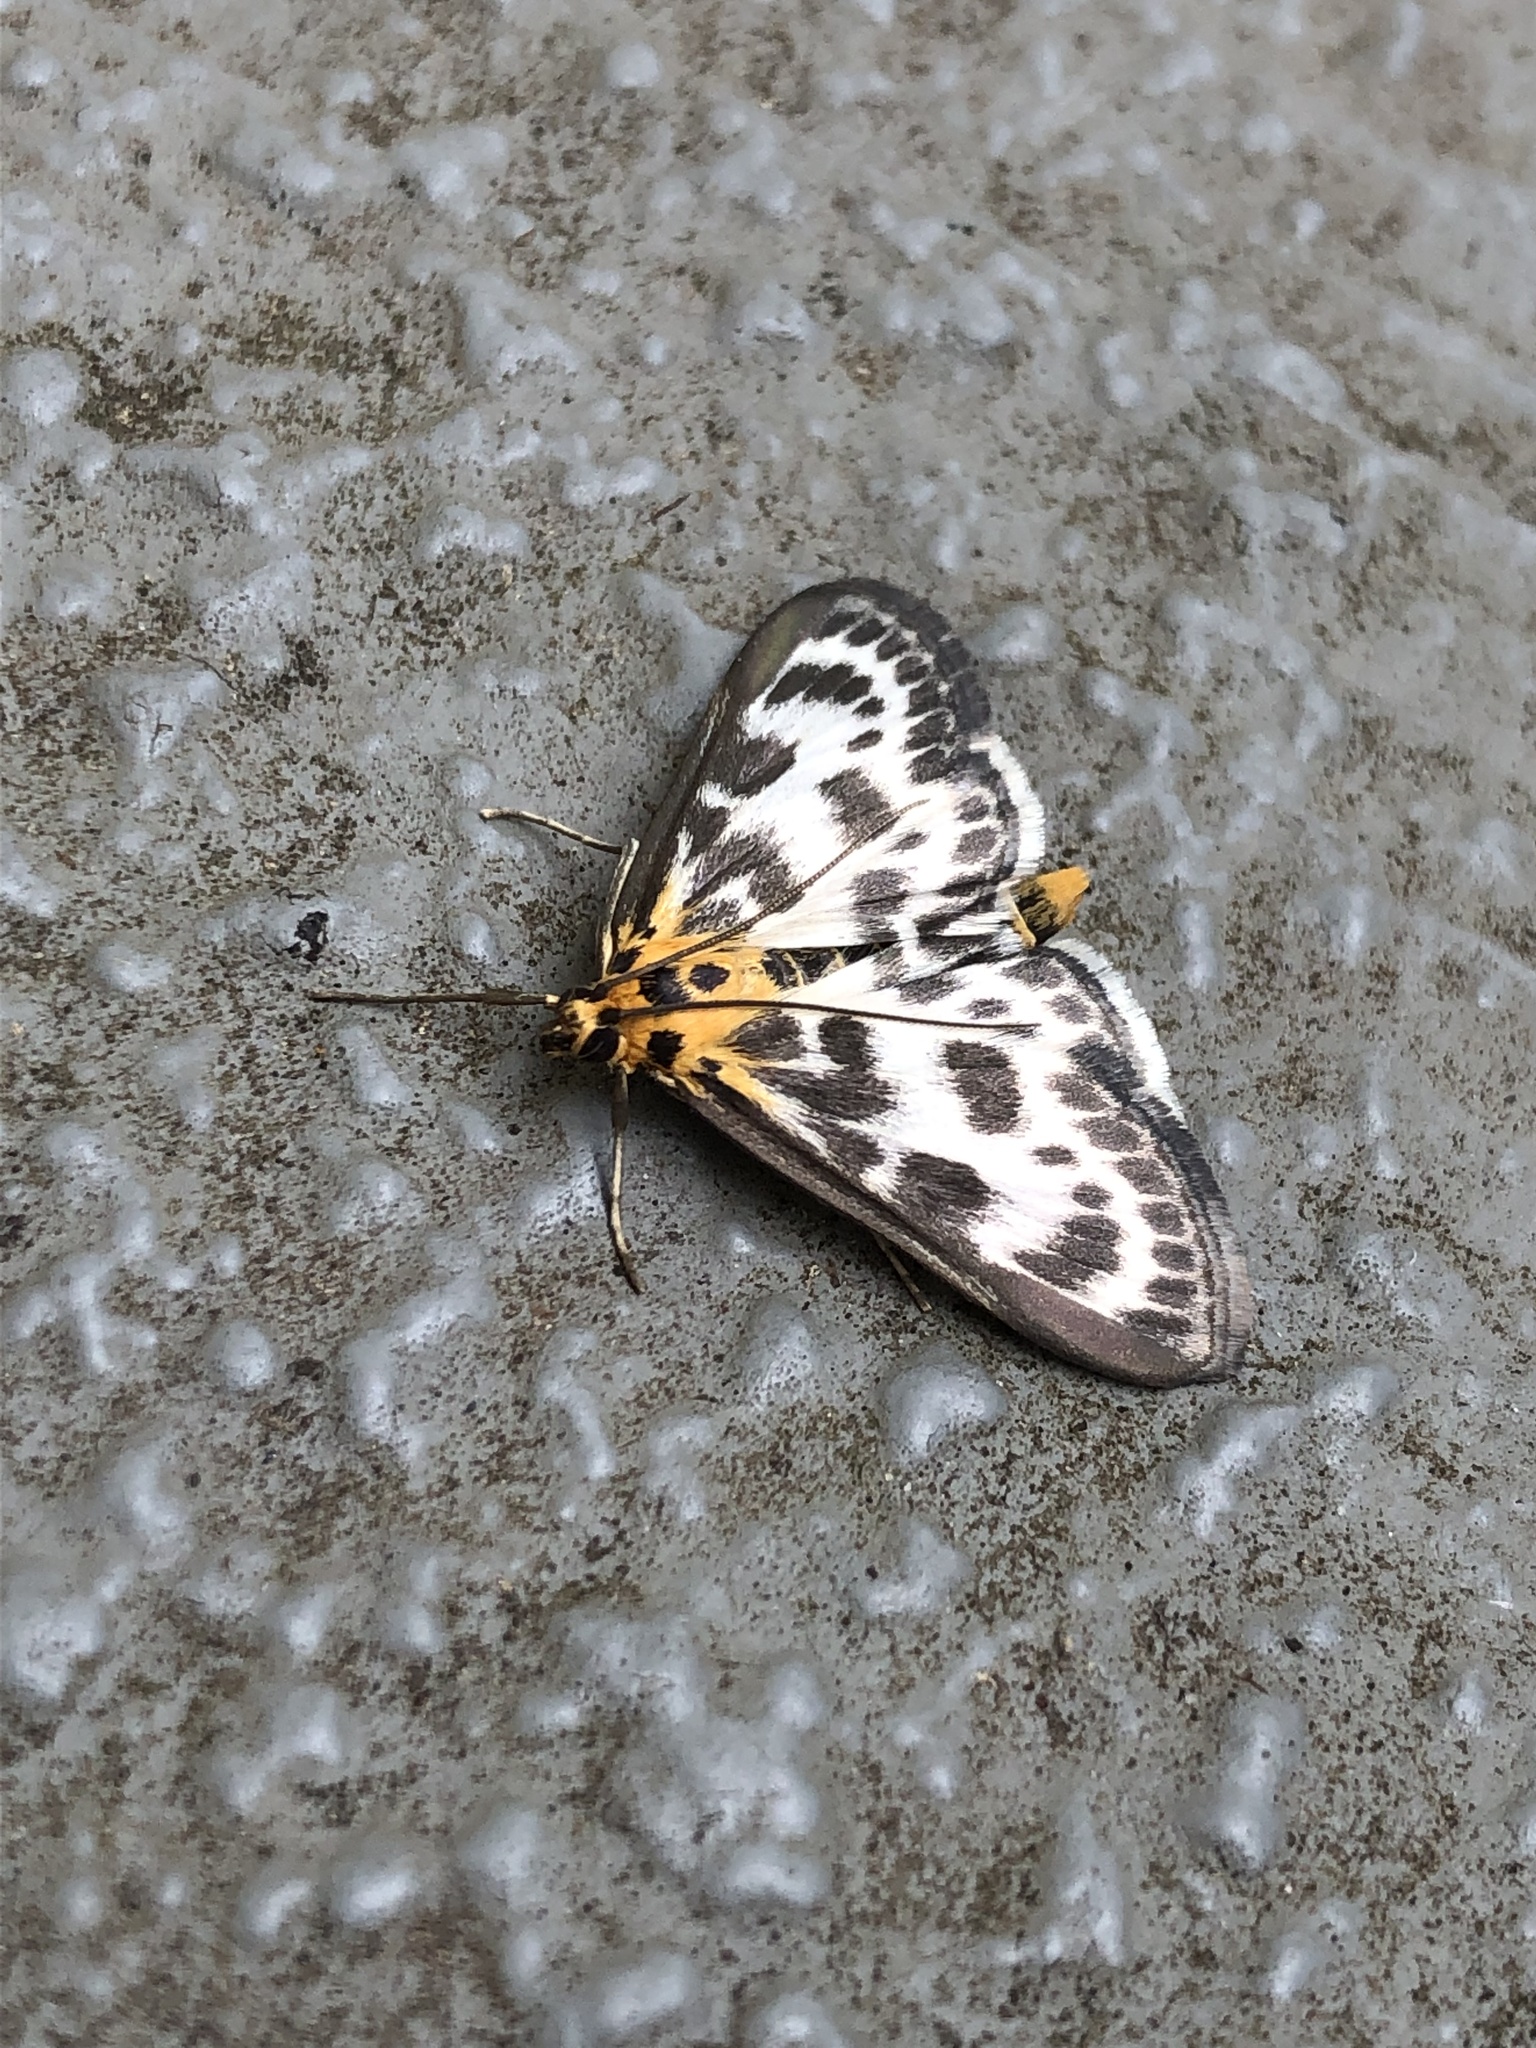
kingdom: Animalia
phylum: Arthropoda
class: Insecta
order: Lepidoptera
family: Crambidae
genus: Anania
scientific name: Anania hortulata
